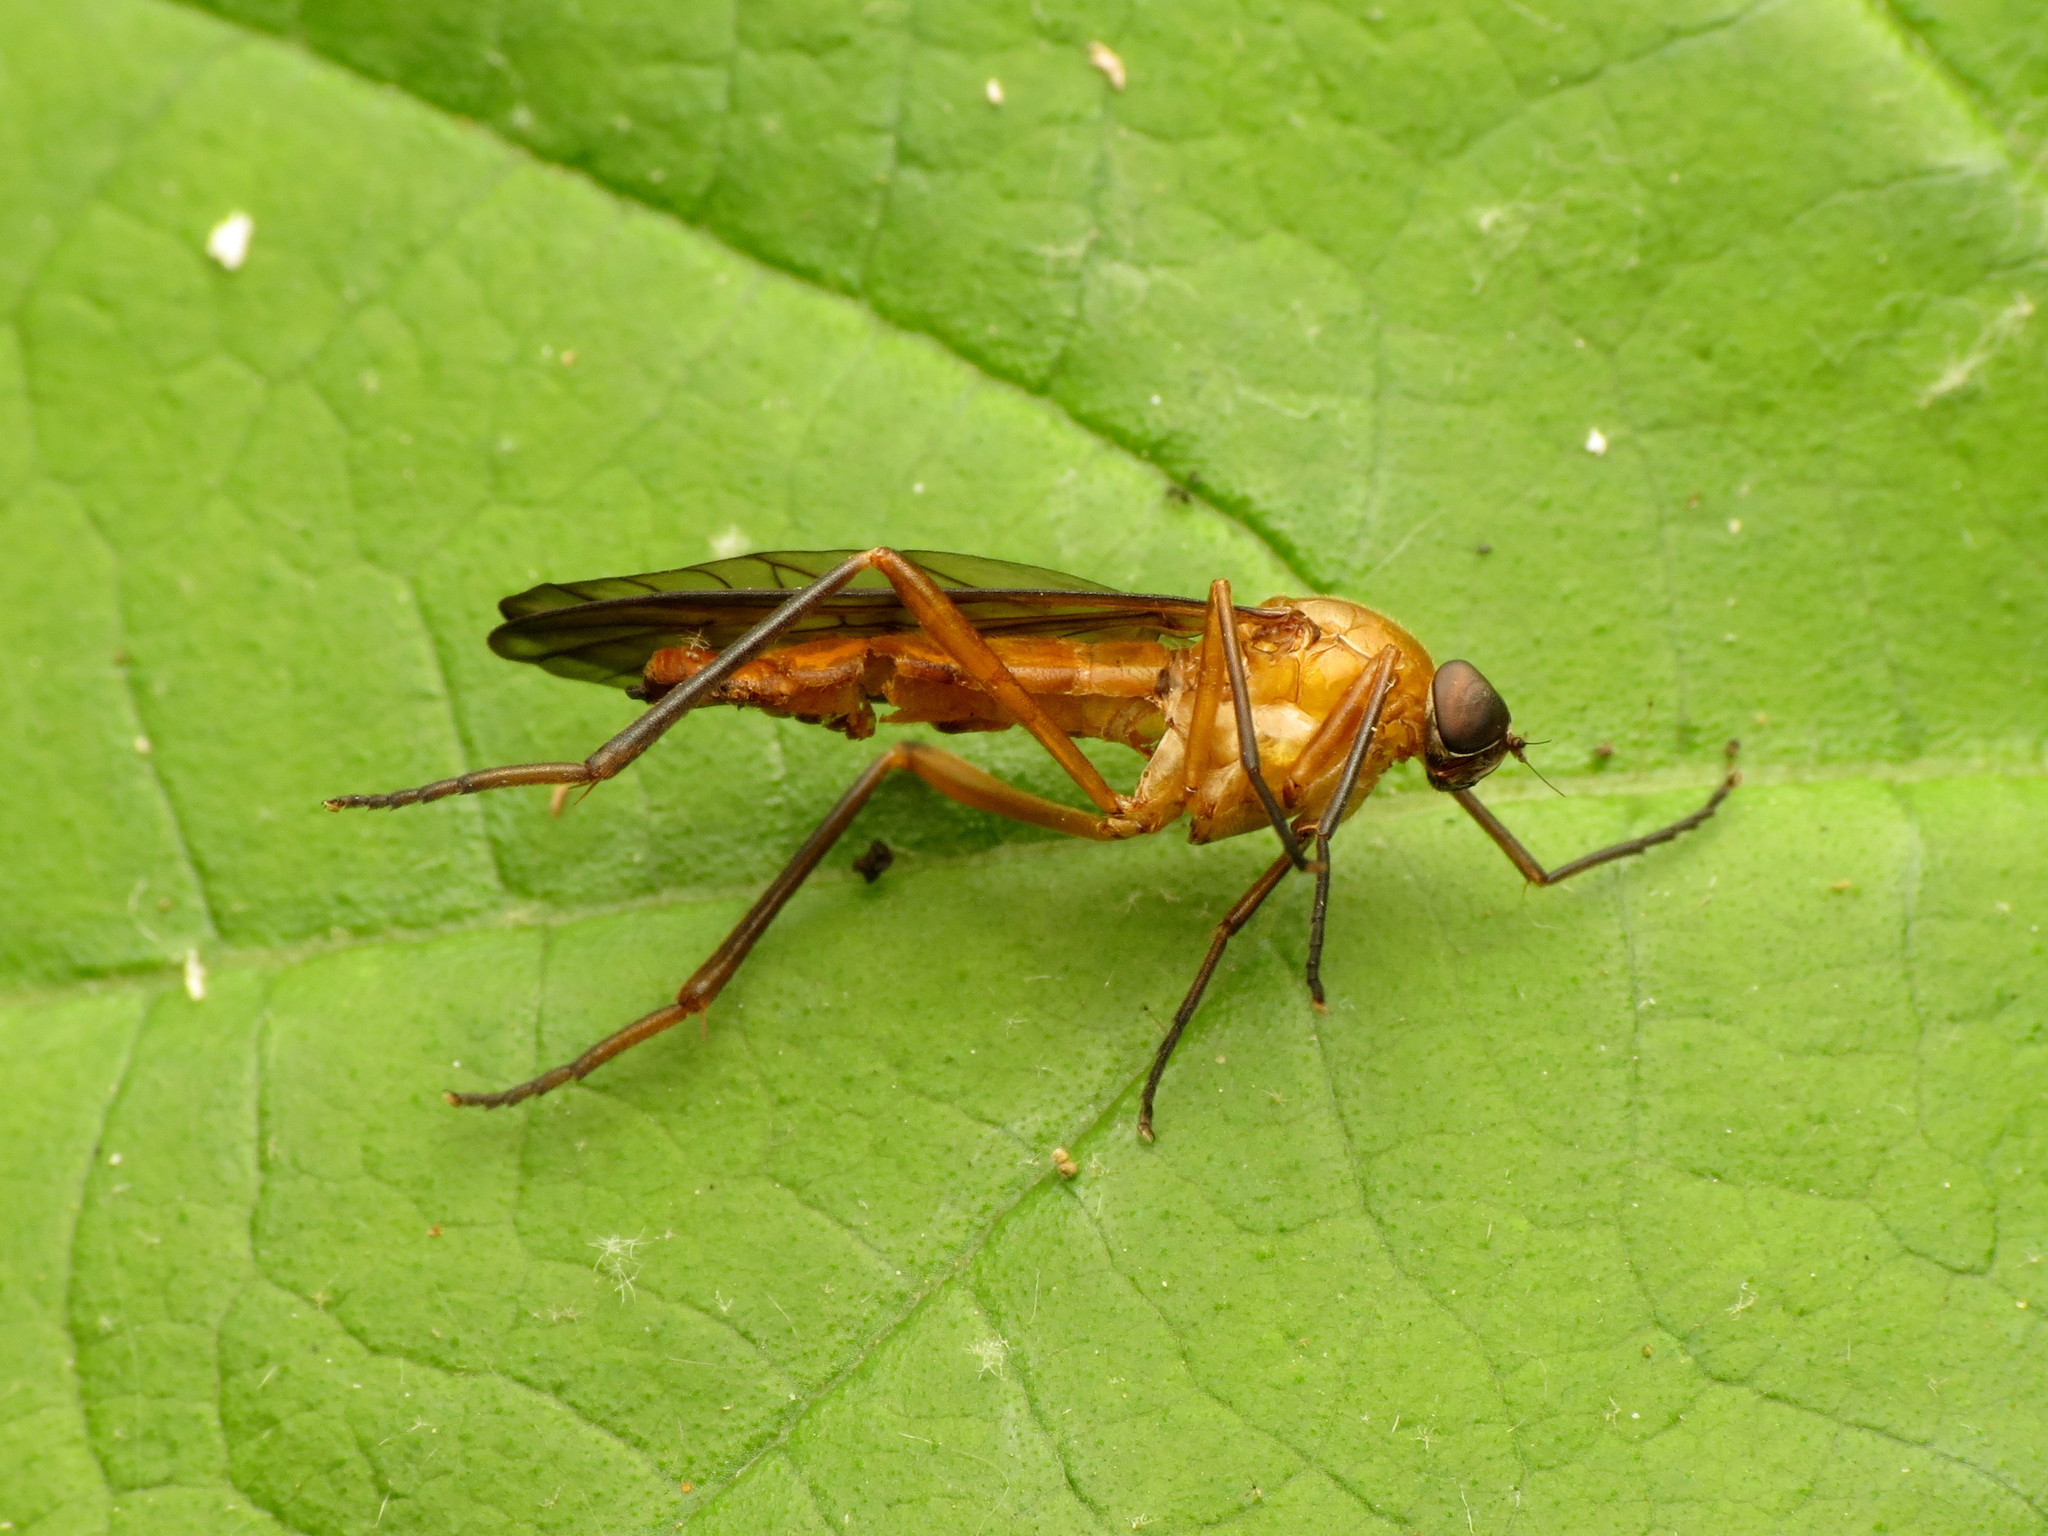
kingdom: Animalia
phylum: Arthropoda
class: Insecta
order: Diptera
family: Xylophagidae
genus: Dialysis
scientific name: Dialysis rufithorax
